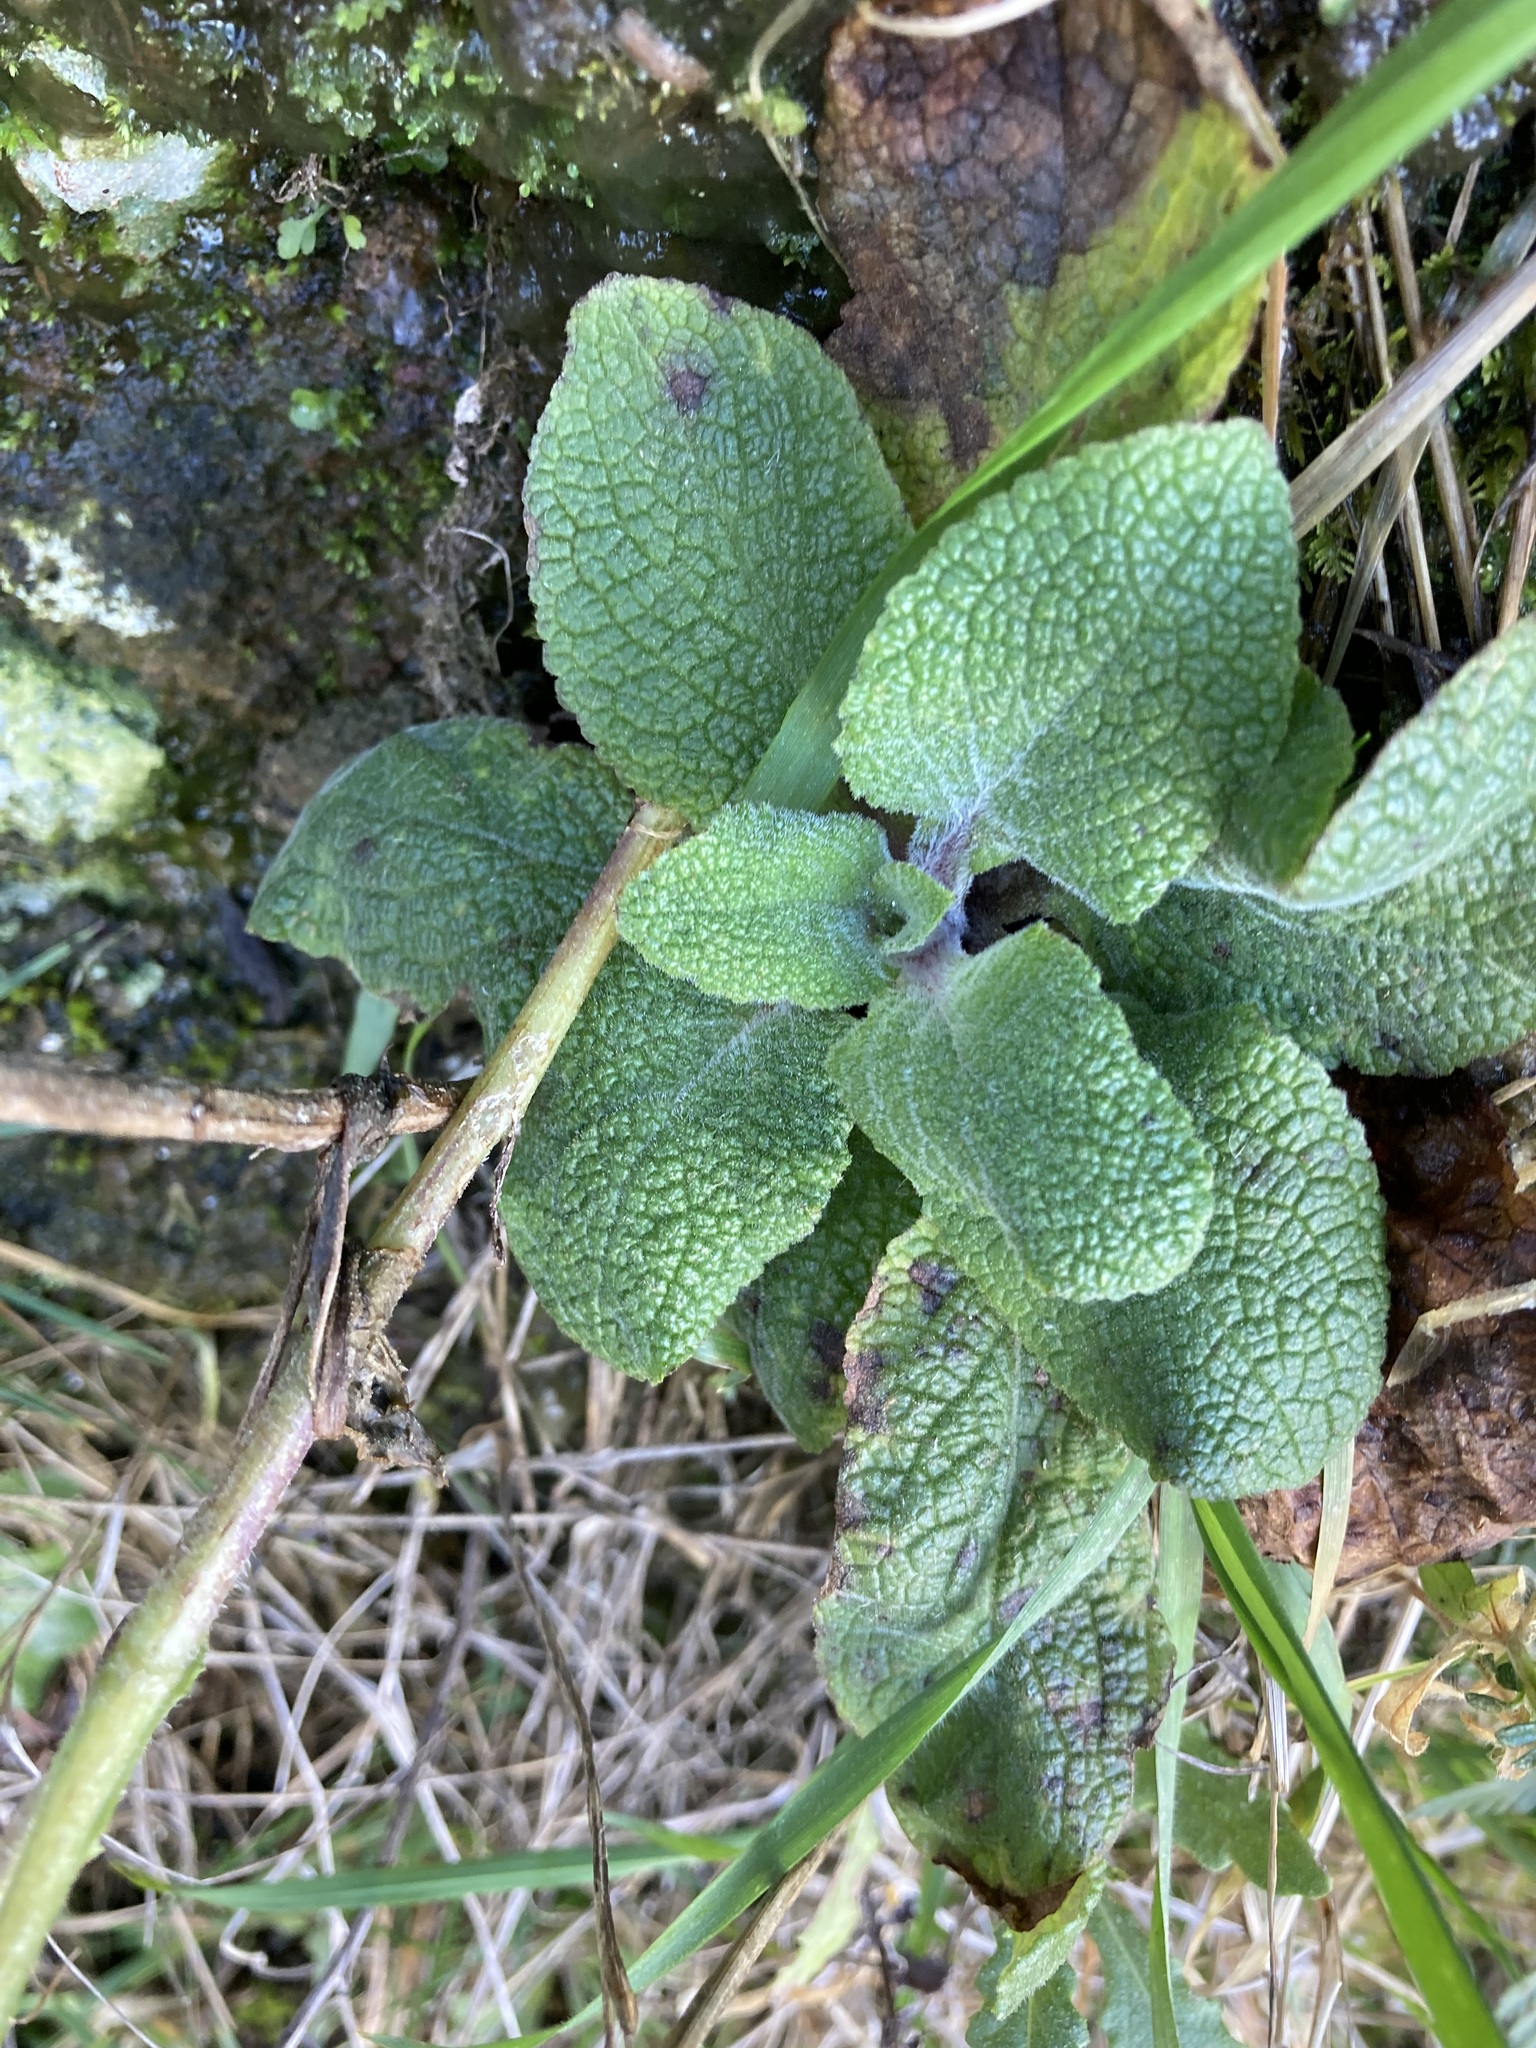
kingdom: Plantae
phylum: Tracheophyta
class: Magnoliopsida
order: Lamiales
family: Plantaginaceae
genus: Digitalis
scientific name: Digitalis purpurea
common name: Foxglove
